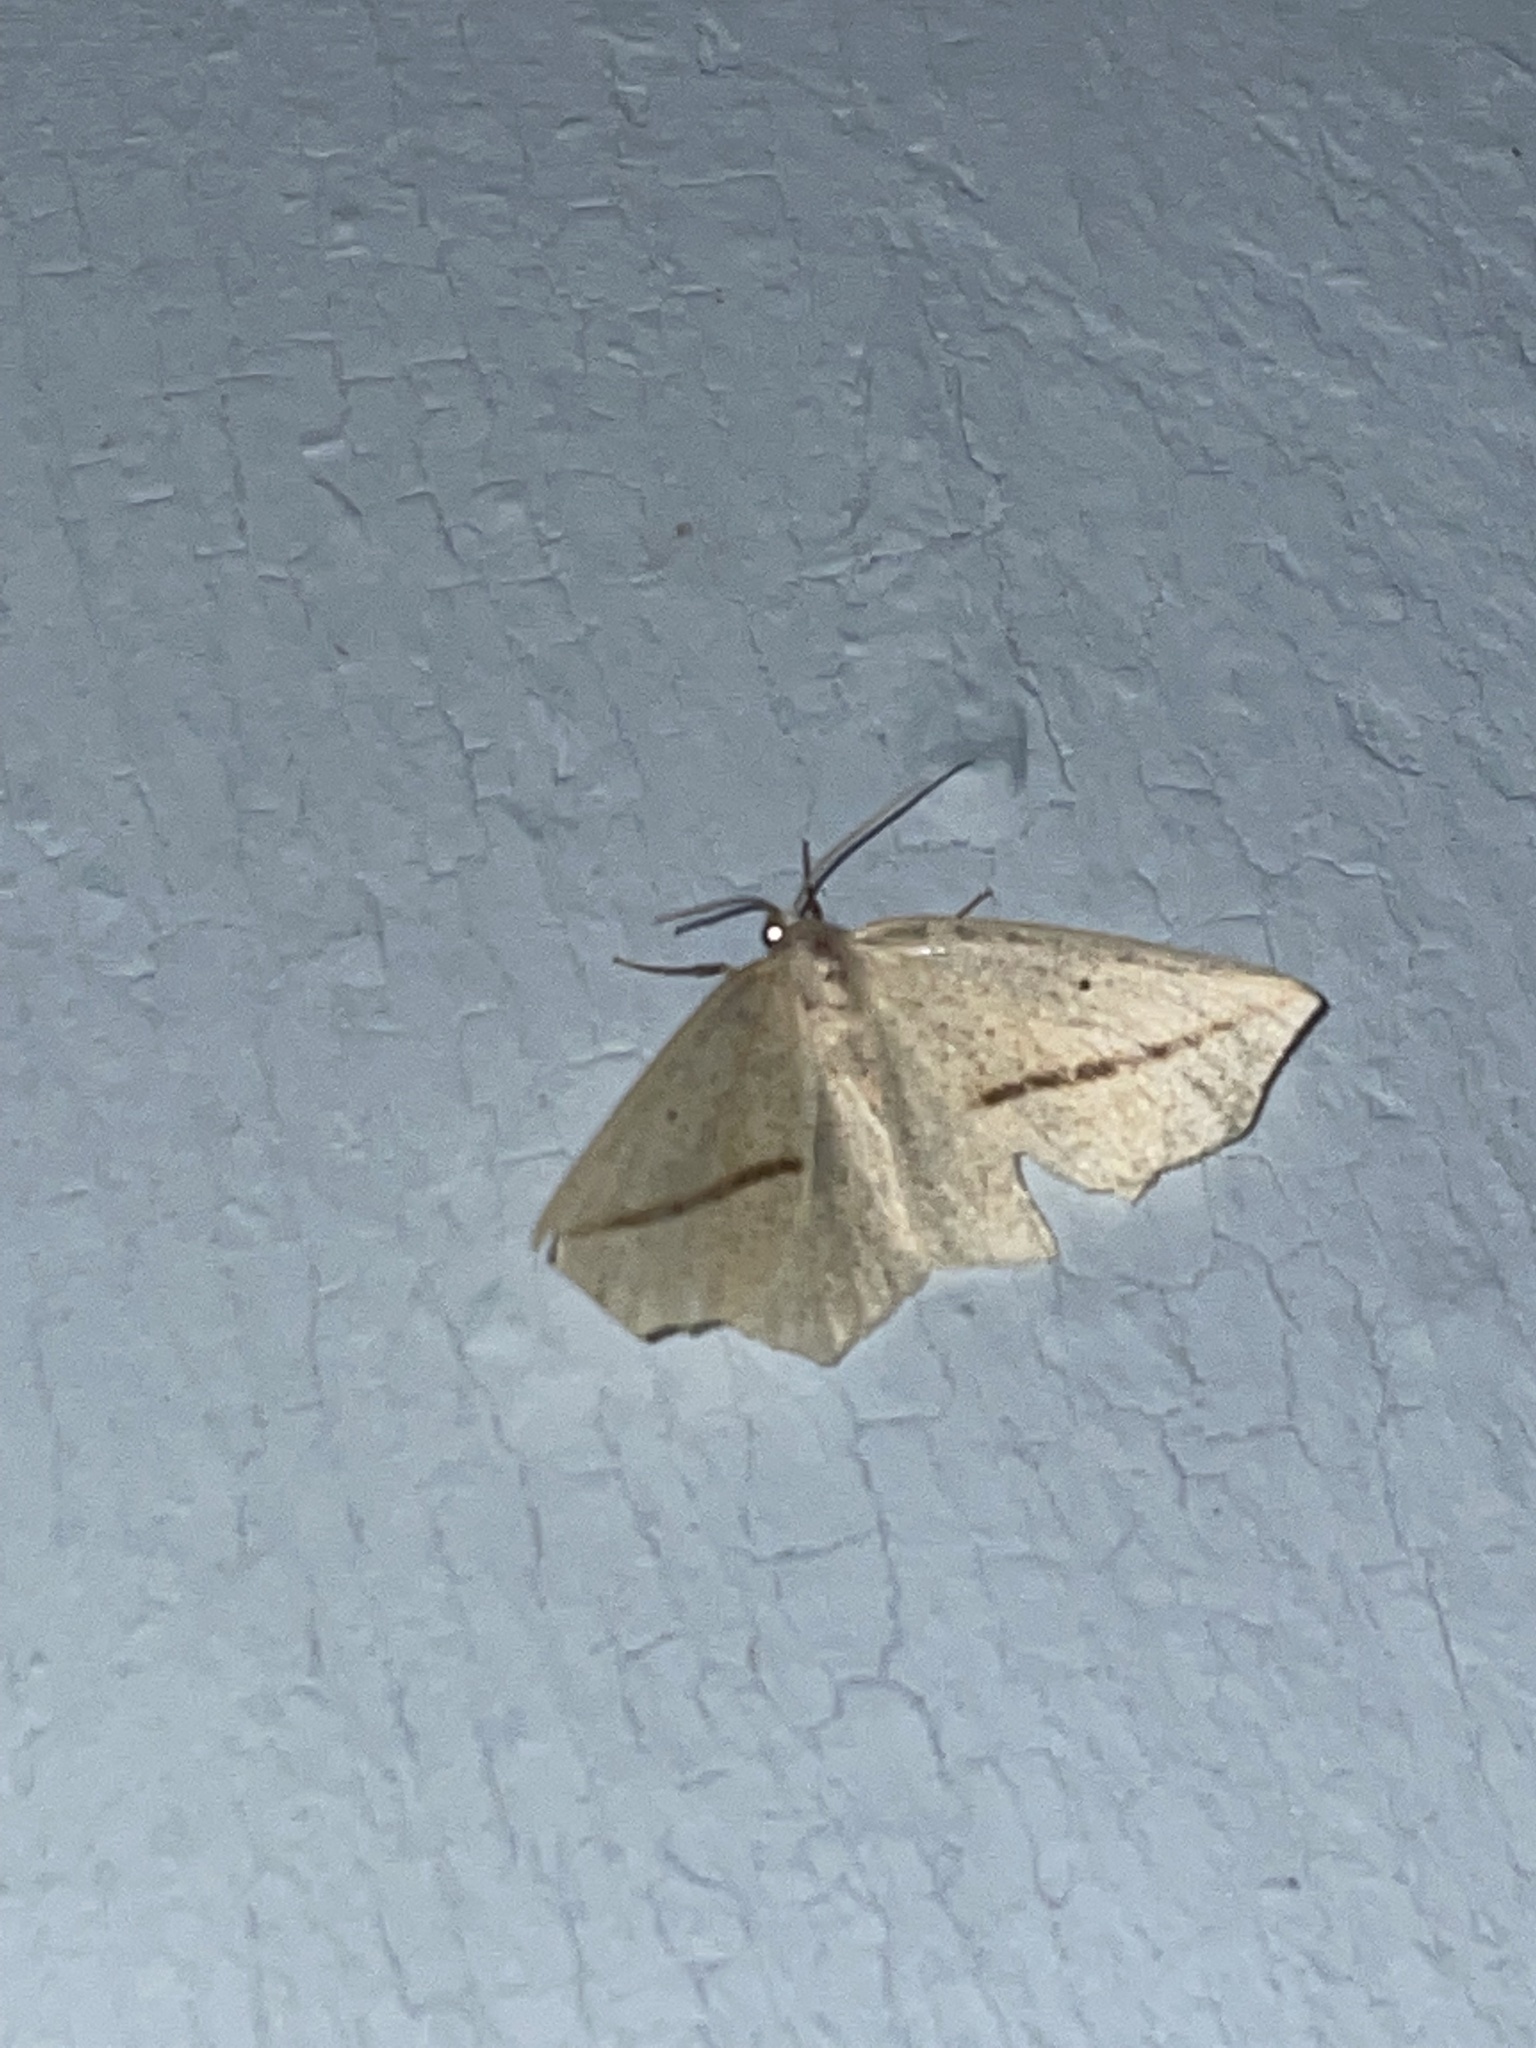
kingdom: Animalia
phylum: Arthropoda
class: Insecta
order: Lepidoptera
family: Geometridae
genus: Tetracis
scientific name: Tetracis crocallata
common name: Yellow slant-line
